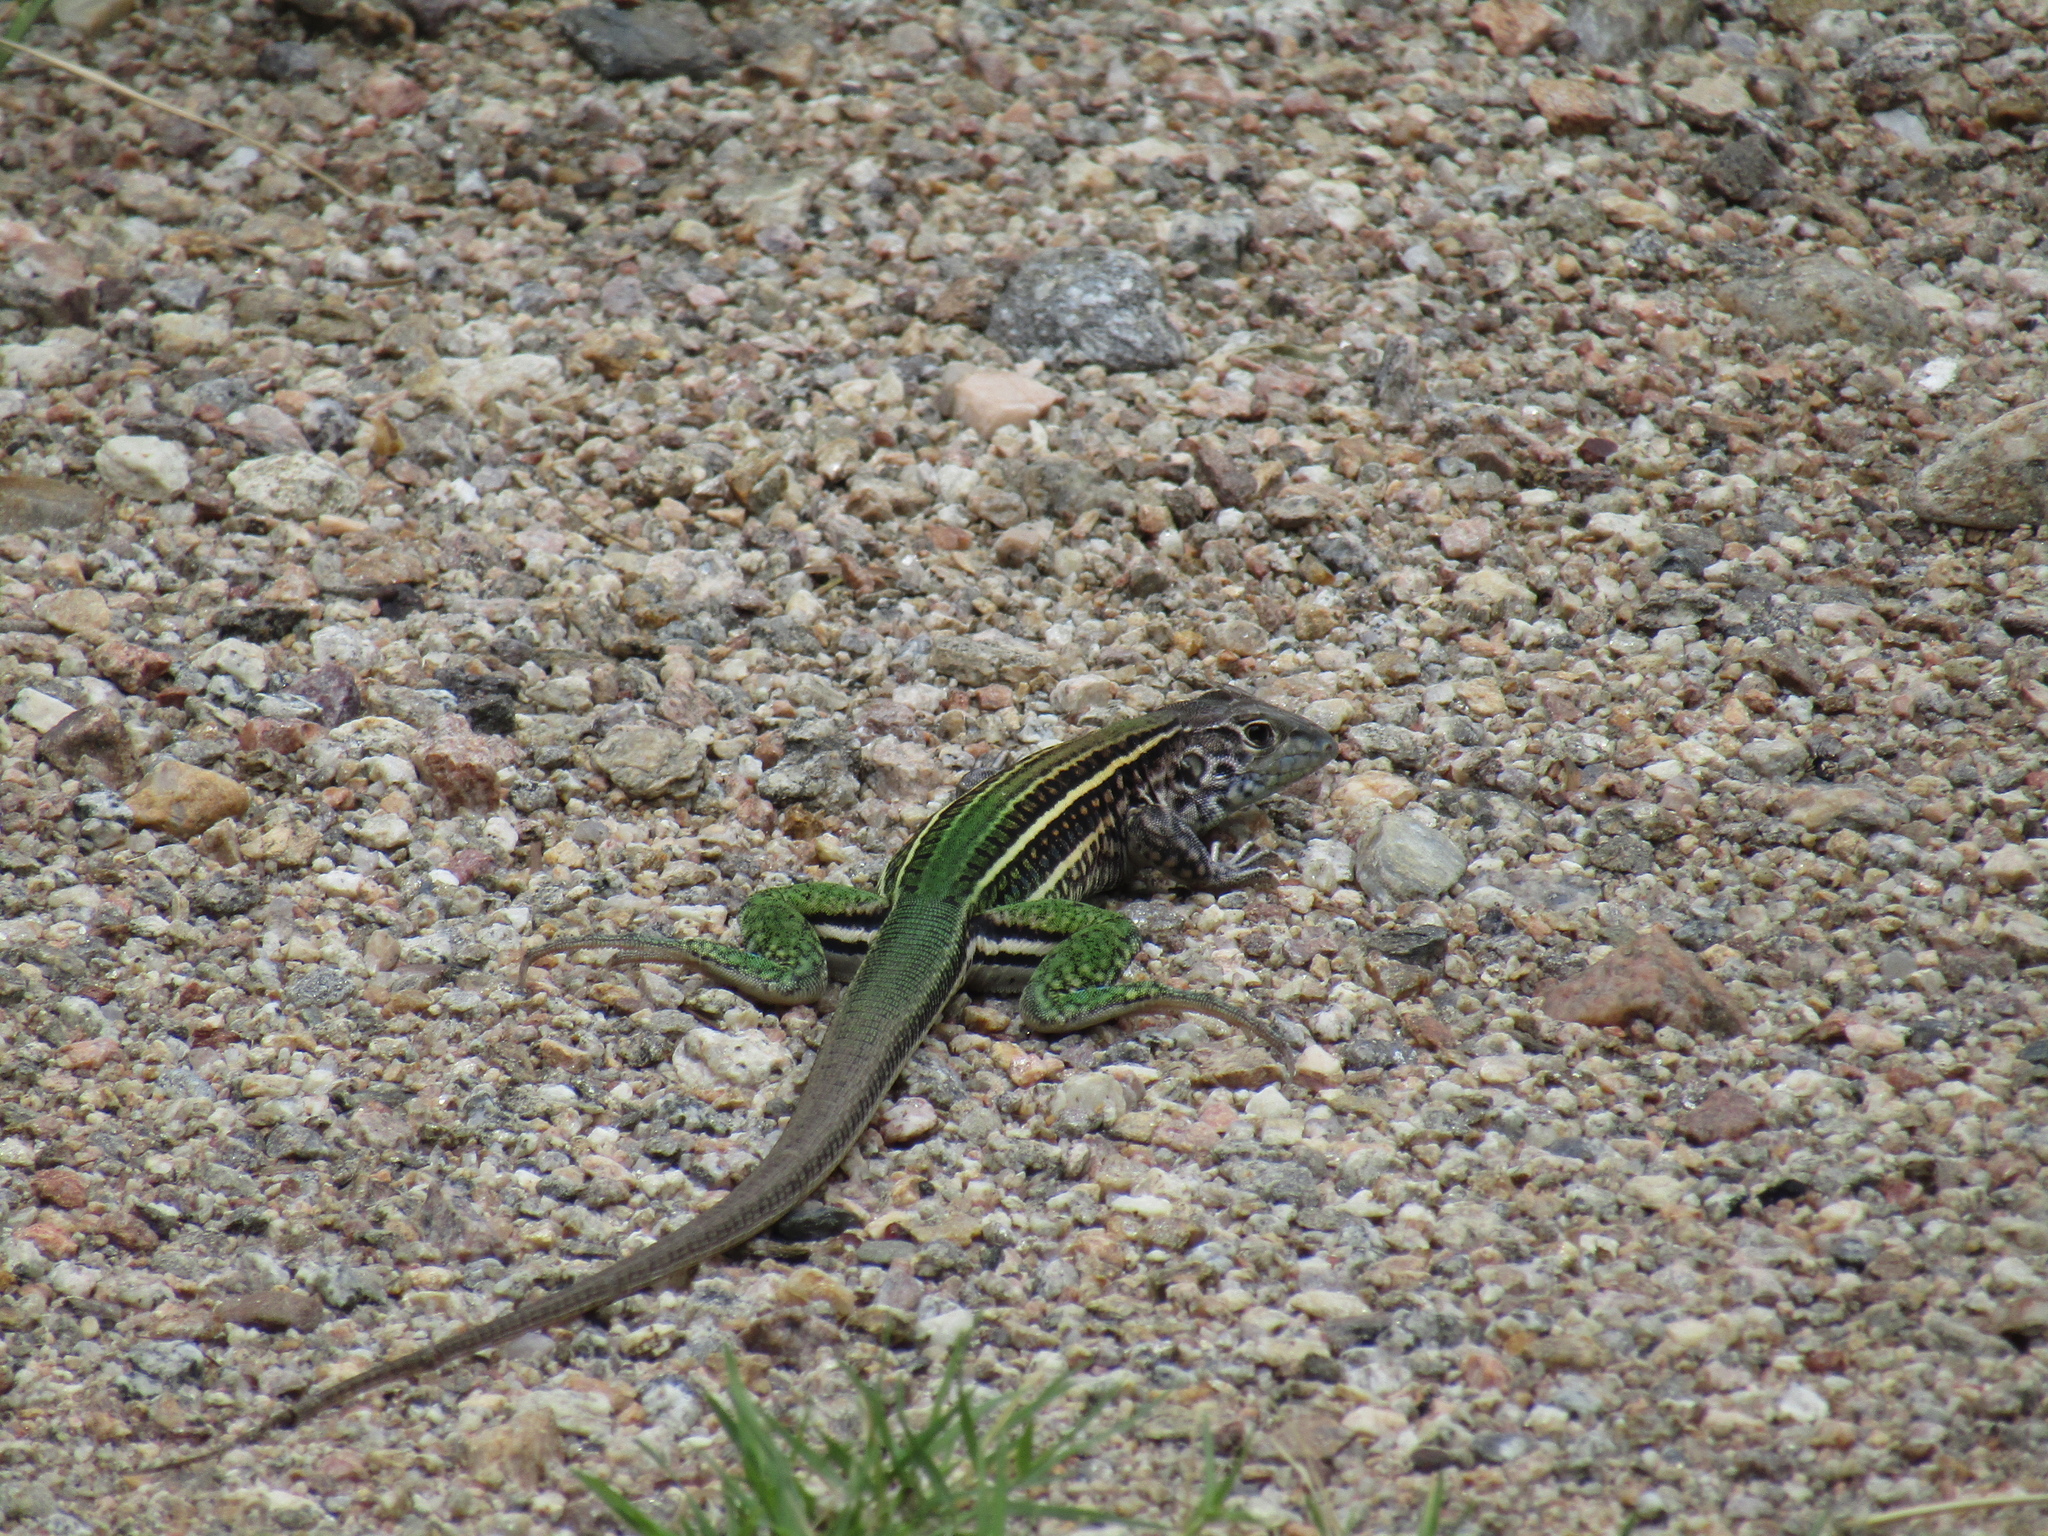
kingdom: Animalia
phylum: Chordata
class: Squamata
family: Teiidae
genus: Teius
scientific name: Teius teyou
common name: Four-toed tegu
